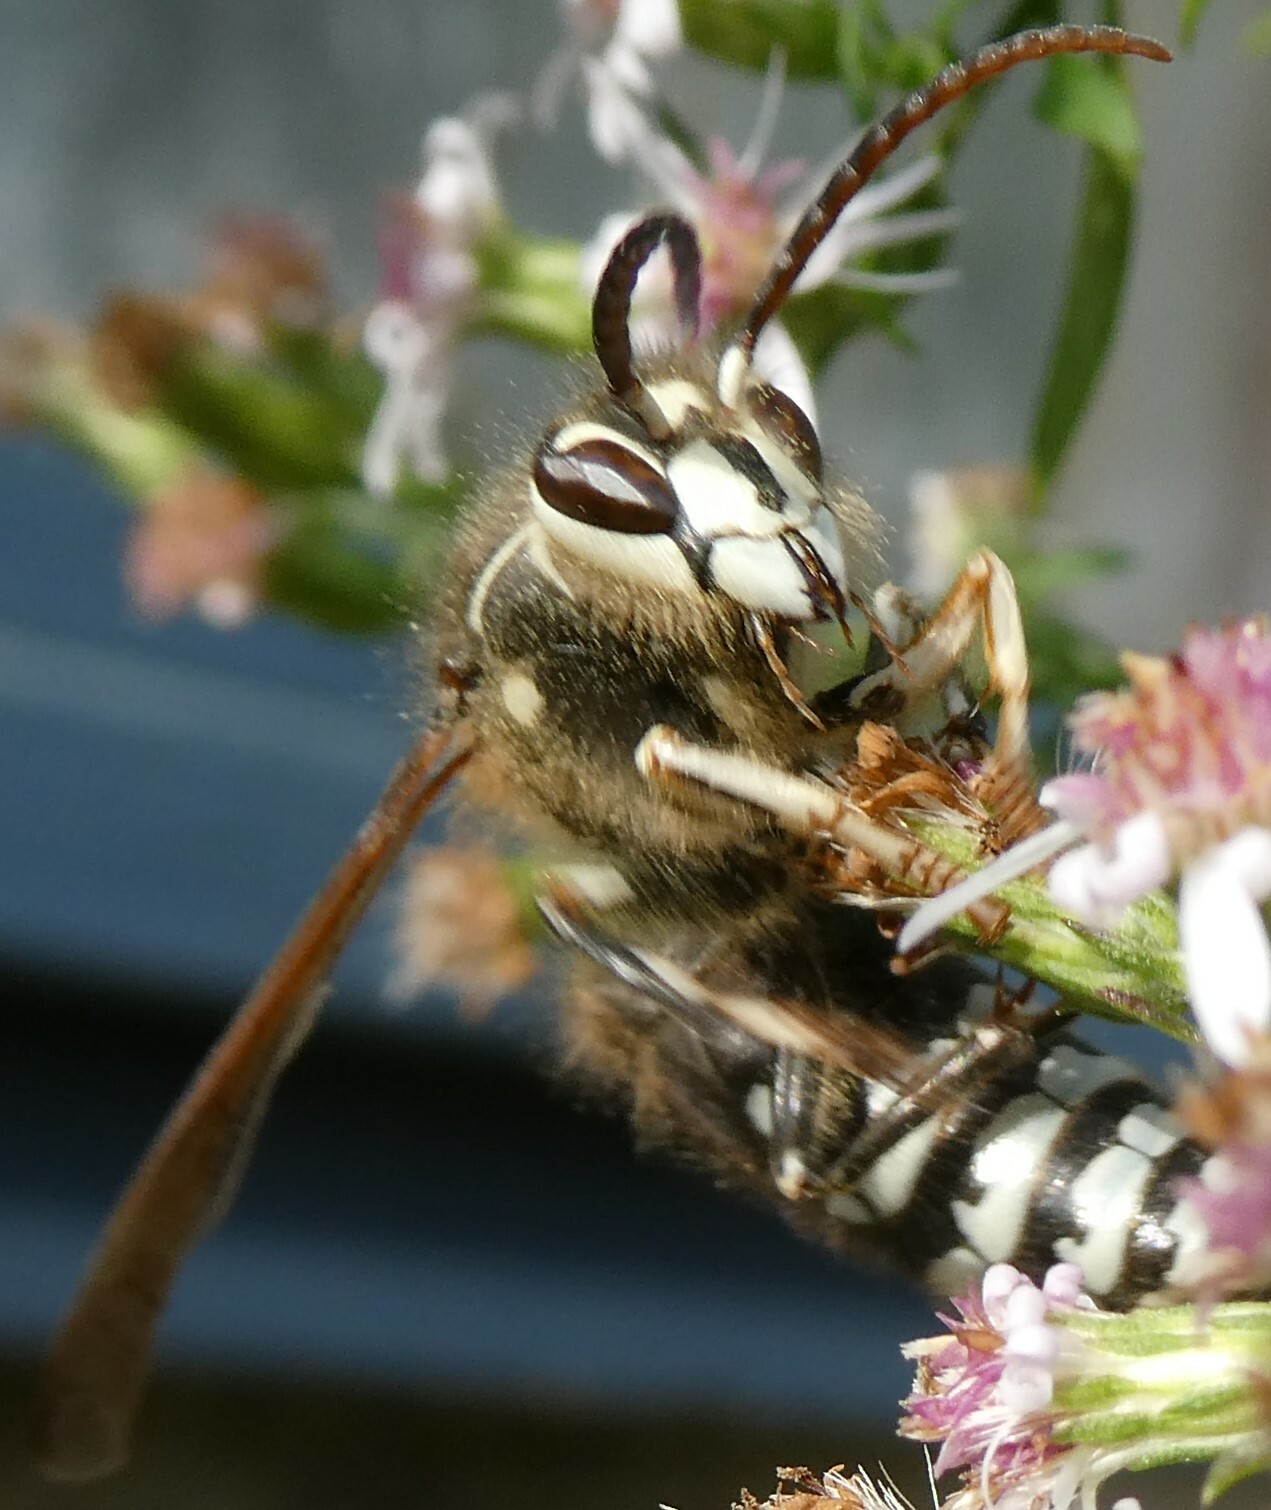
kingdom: Animalia
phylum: Arthropoda
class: Insecta
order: Hymenoptera
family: Vespidae
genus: Dolichovespula
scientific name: Dolichovespula maculata
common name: Bald-faced hornet
